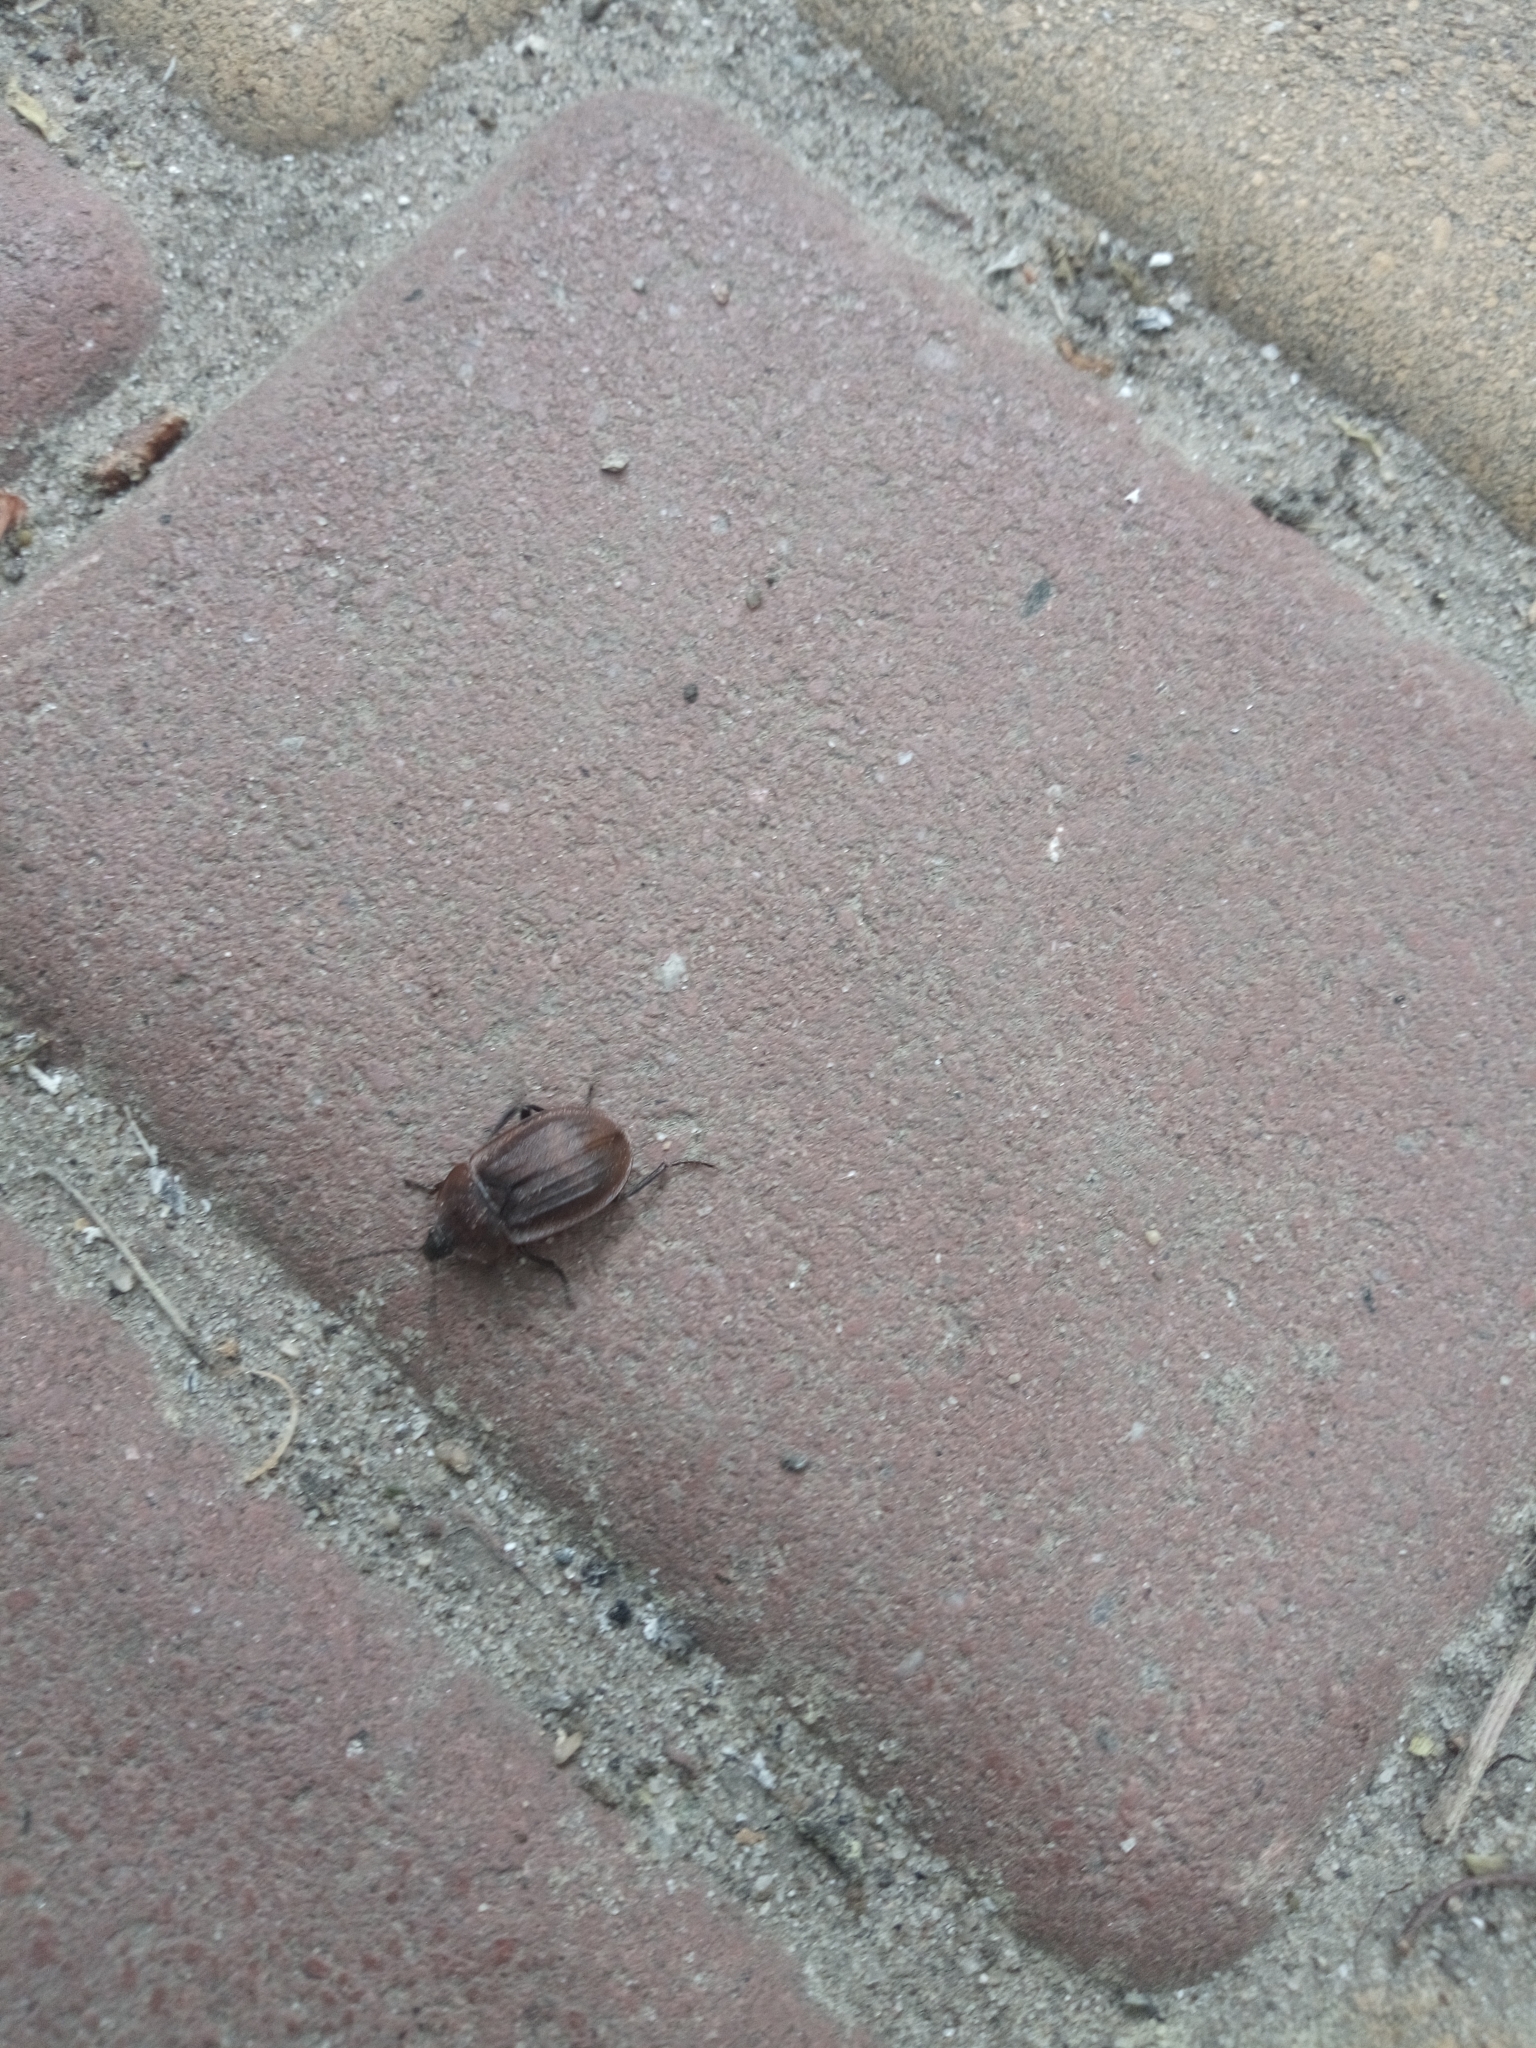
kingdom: Animalia
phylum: Arthropoda
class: Insecta
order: Coleoptera
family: Staphylinidae
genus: Silpha
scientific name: Silpha atrata
